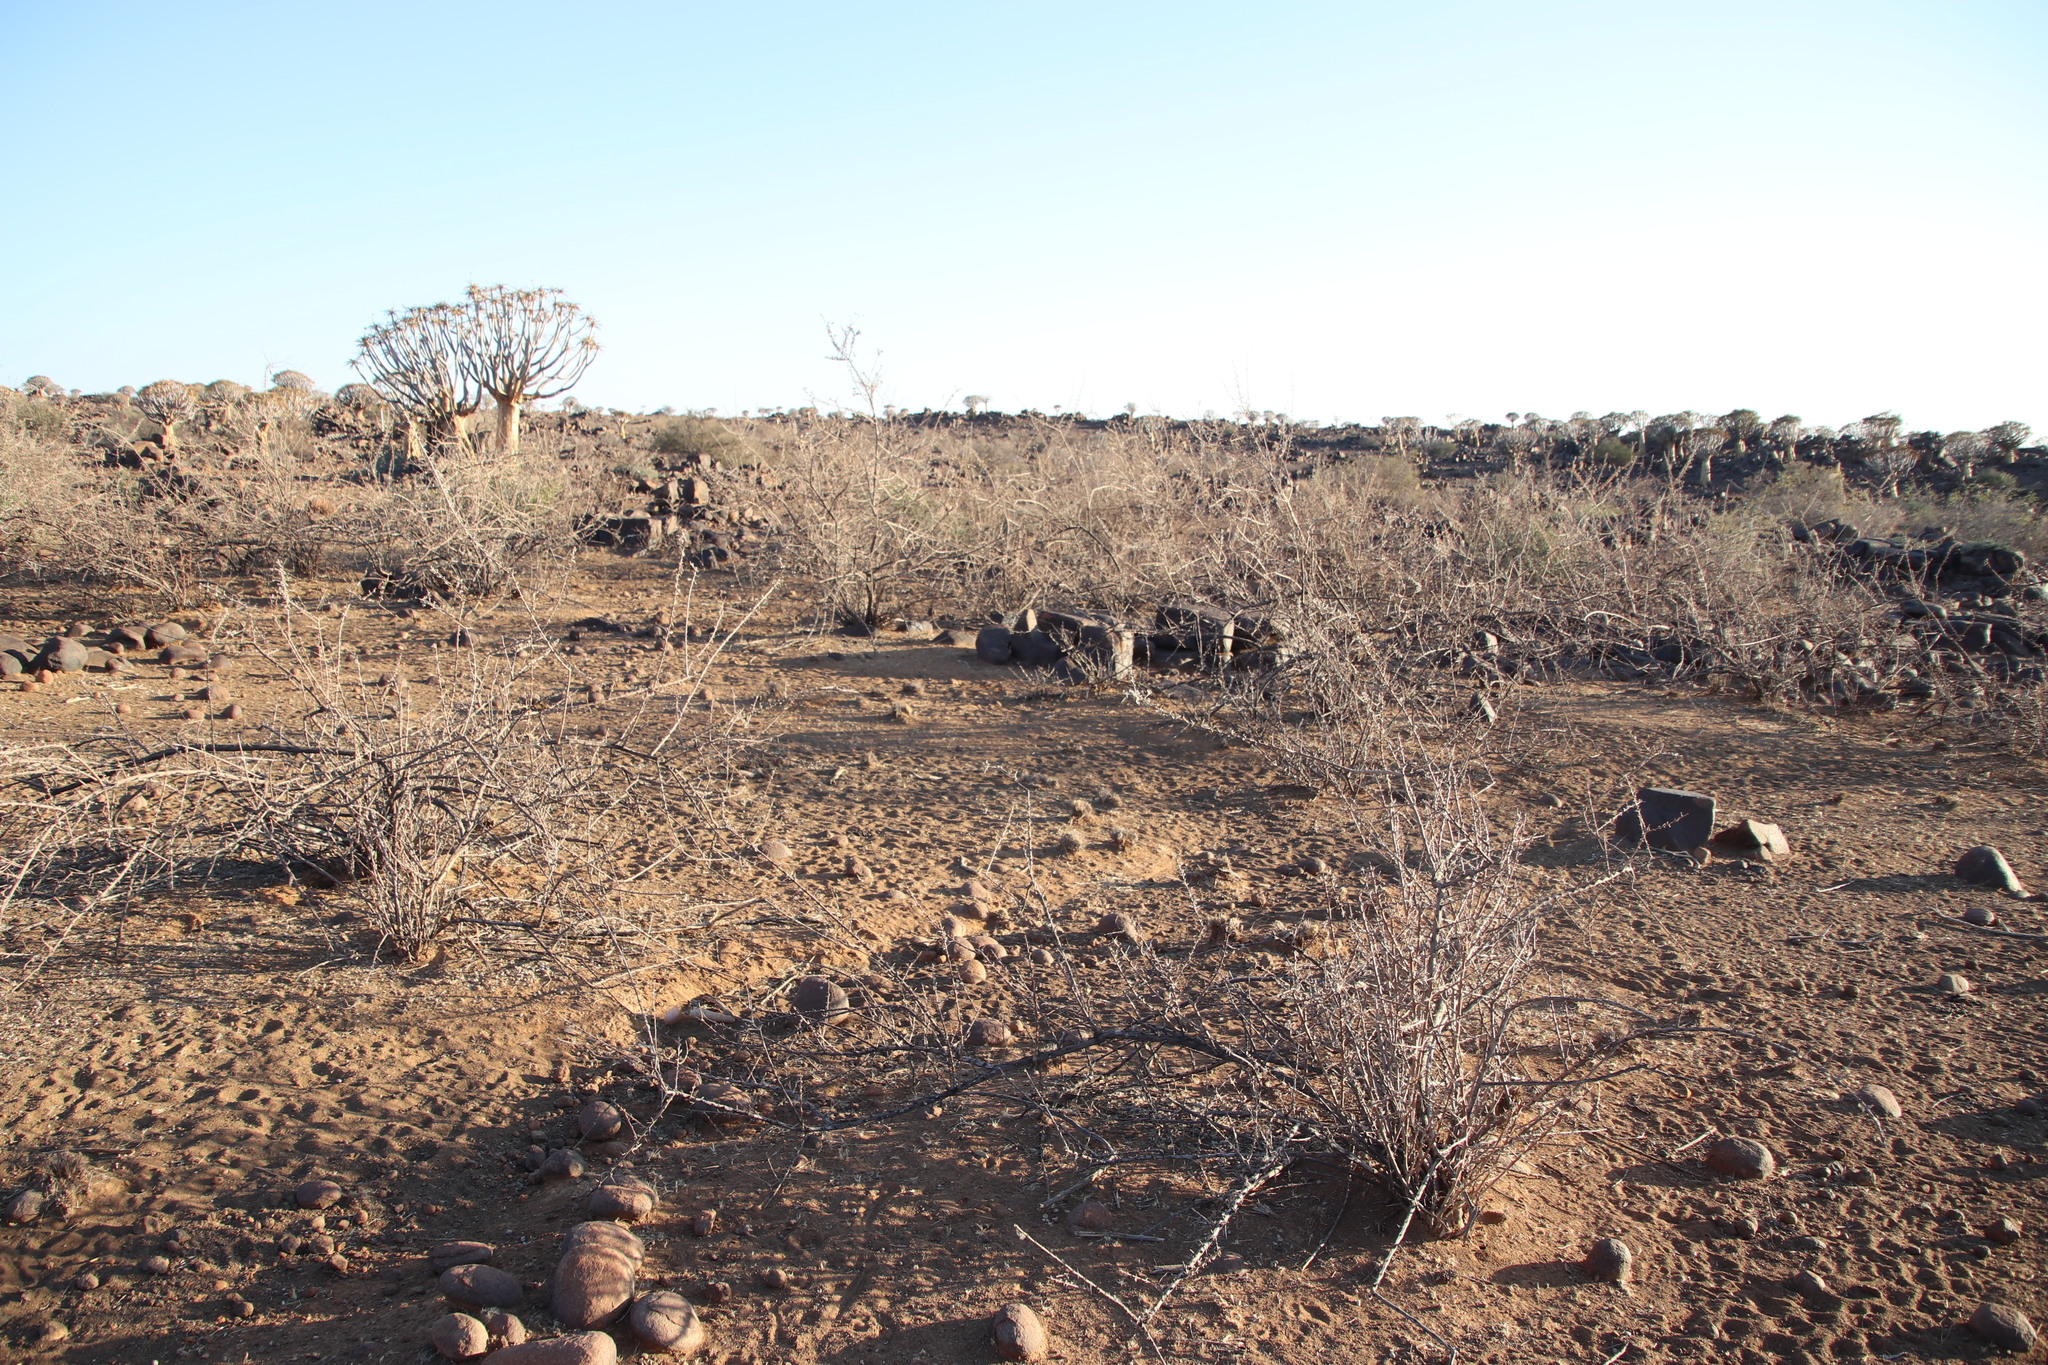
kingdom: Plantae
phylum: Tracheophyta
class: Magnoliopsida
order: Lamiales
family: Bignoniaceae
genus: Catophractes
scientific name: Catophractes alexandri
